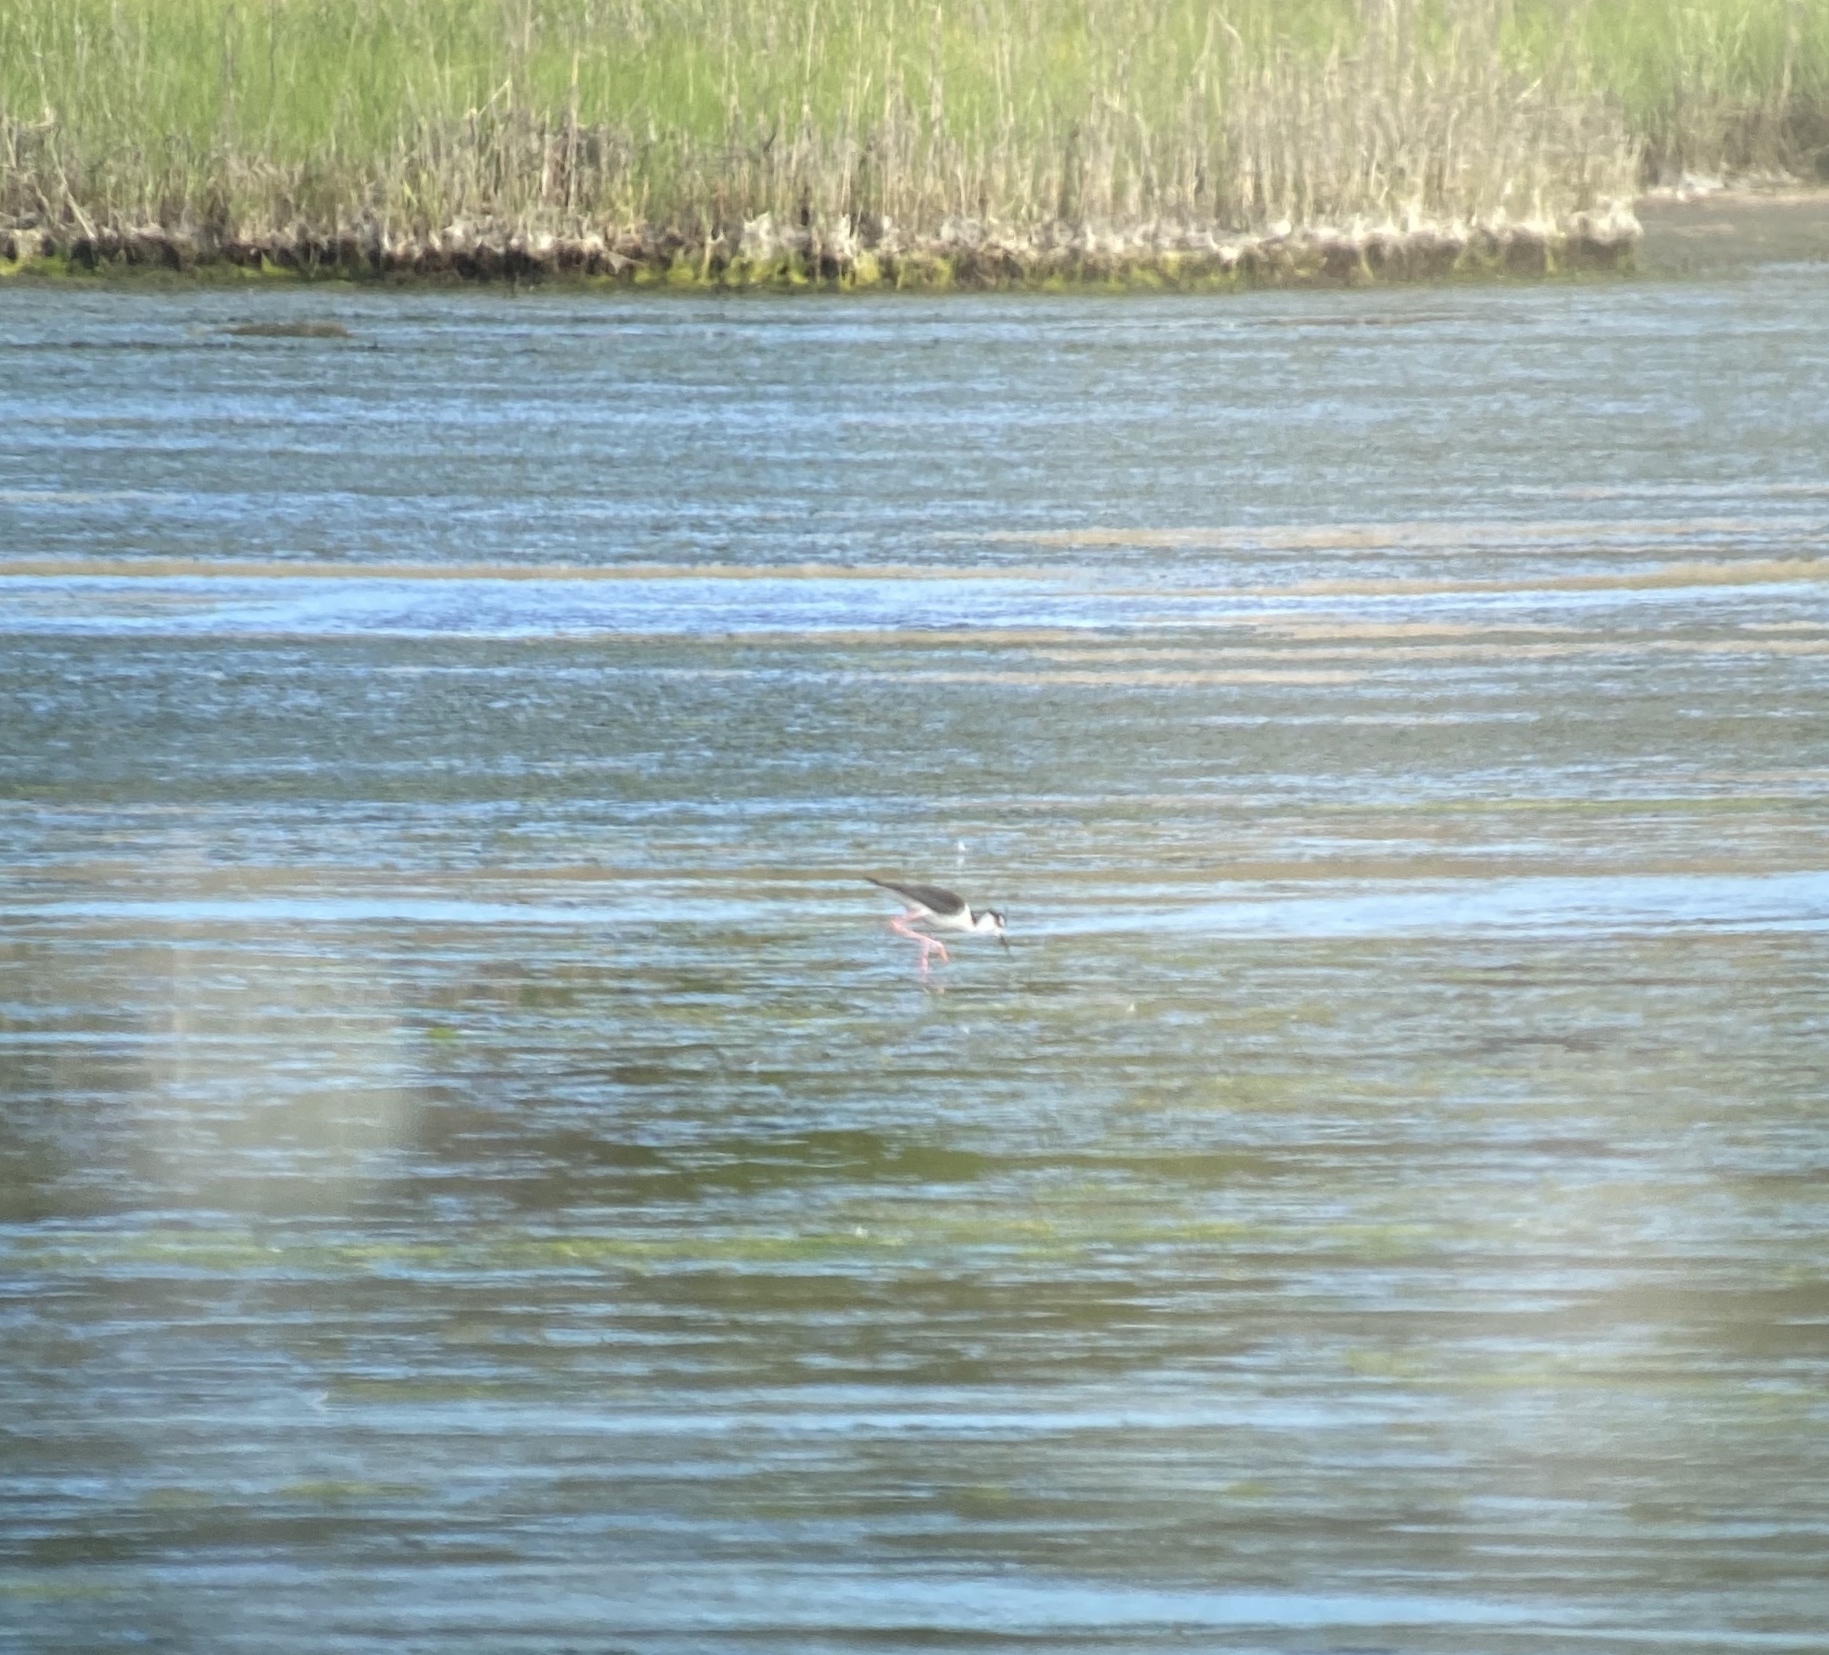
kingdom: Animalia
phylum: Chordata
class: Aves
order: Charadriiformes
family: Recurvirostridae
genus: Himantopus
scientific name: Himantopus mexicanus
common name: Black-necked stilt
